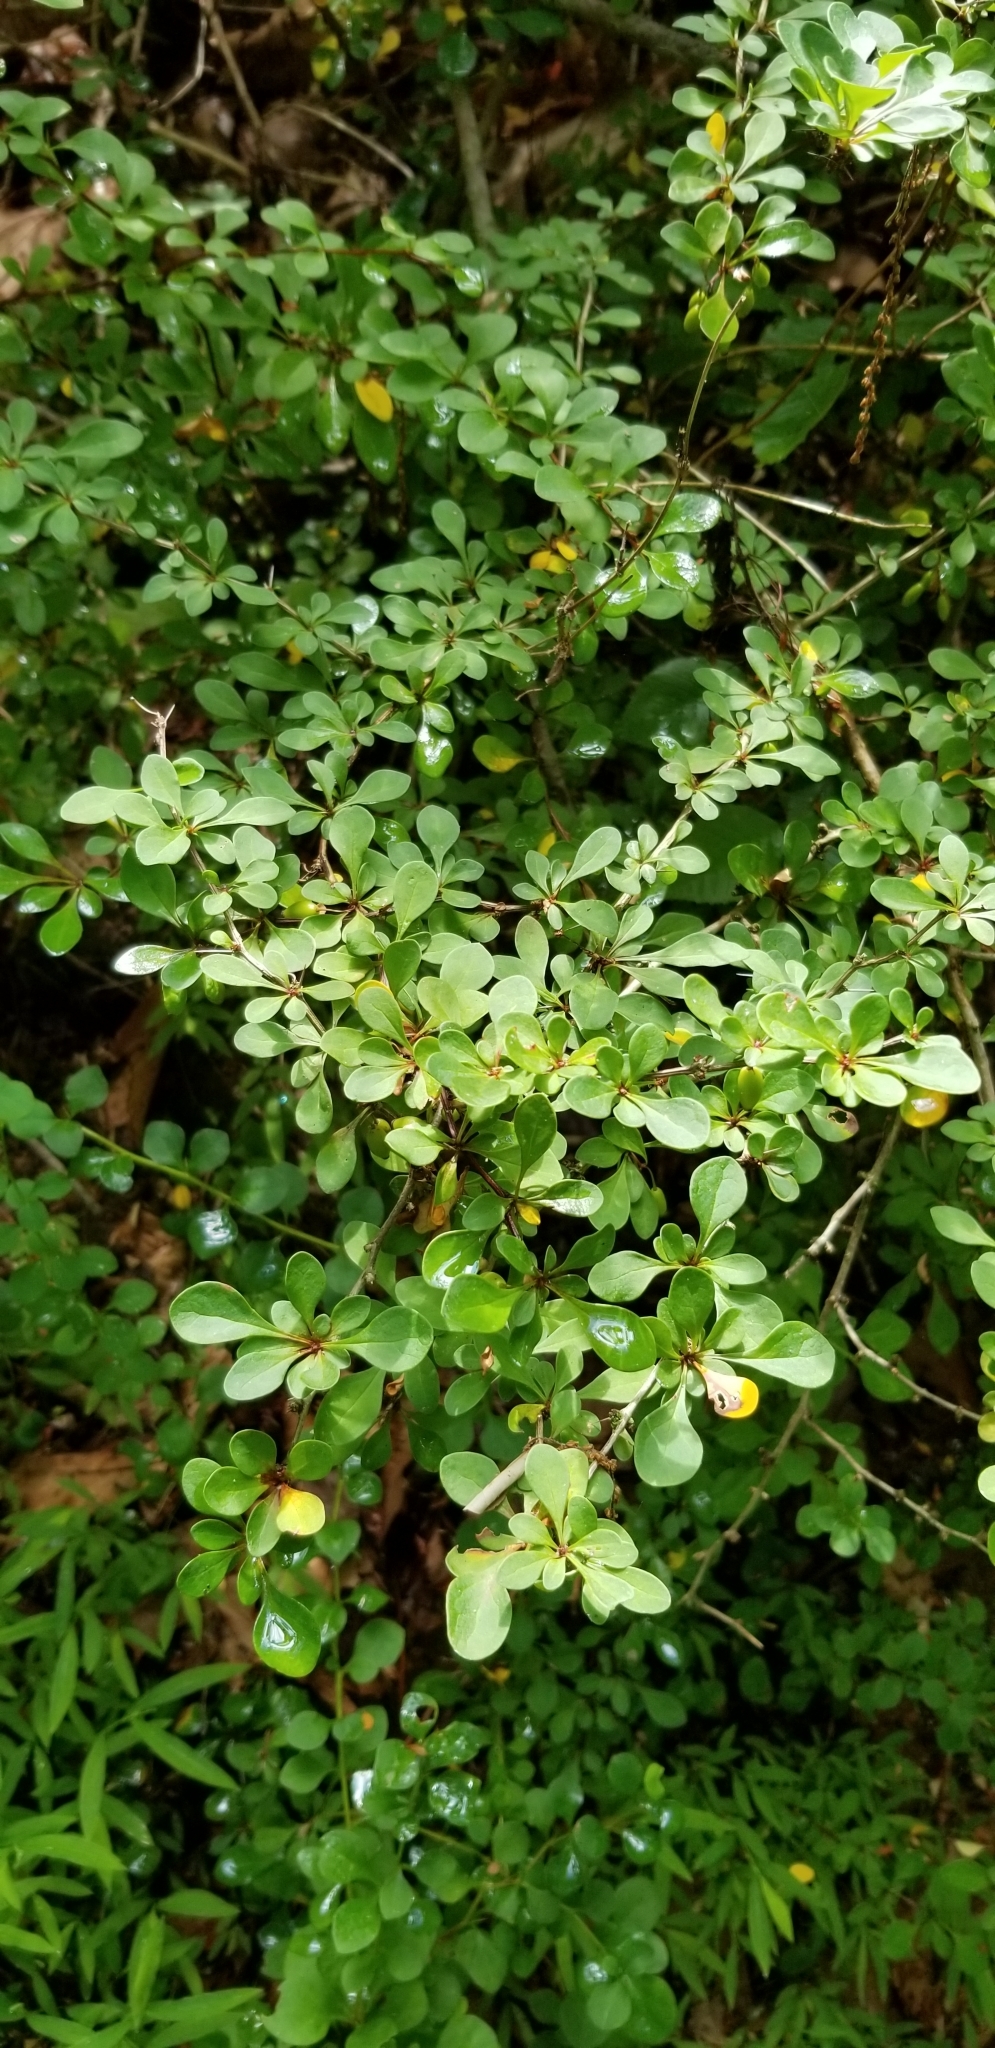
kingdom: Plantae
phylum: Tracheophyta
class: Magnoliopsida
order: Ranunculales
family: Berberidaceae
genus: Berberis
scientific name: Berberis thunbergii
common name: Japanese barberry
